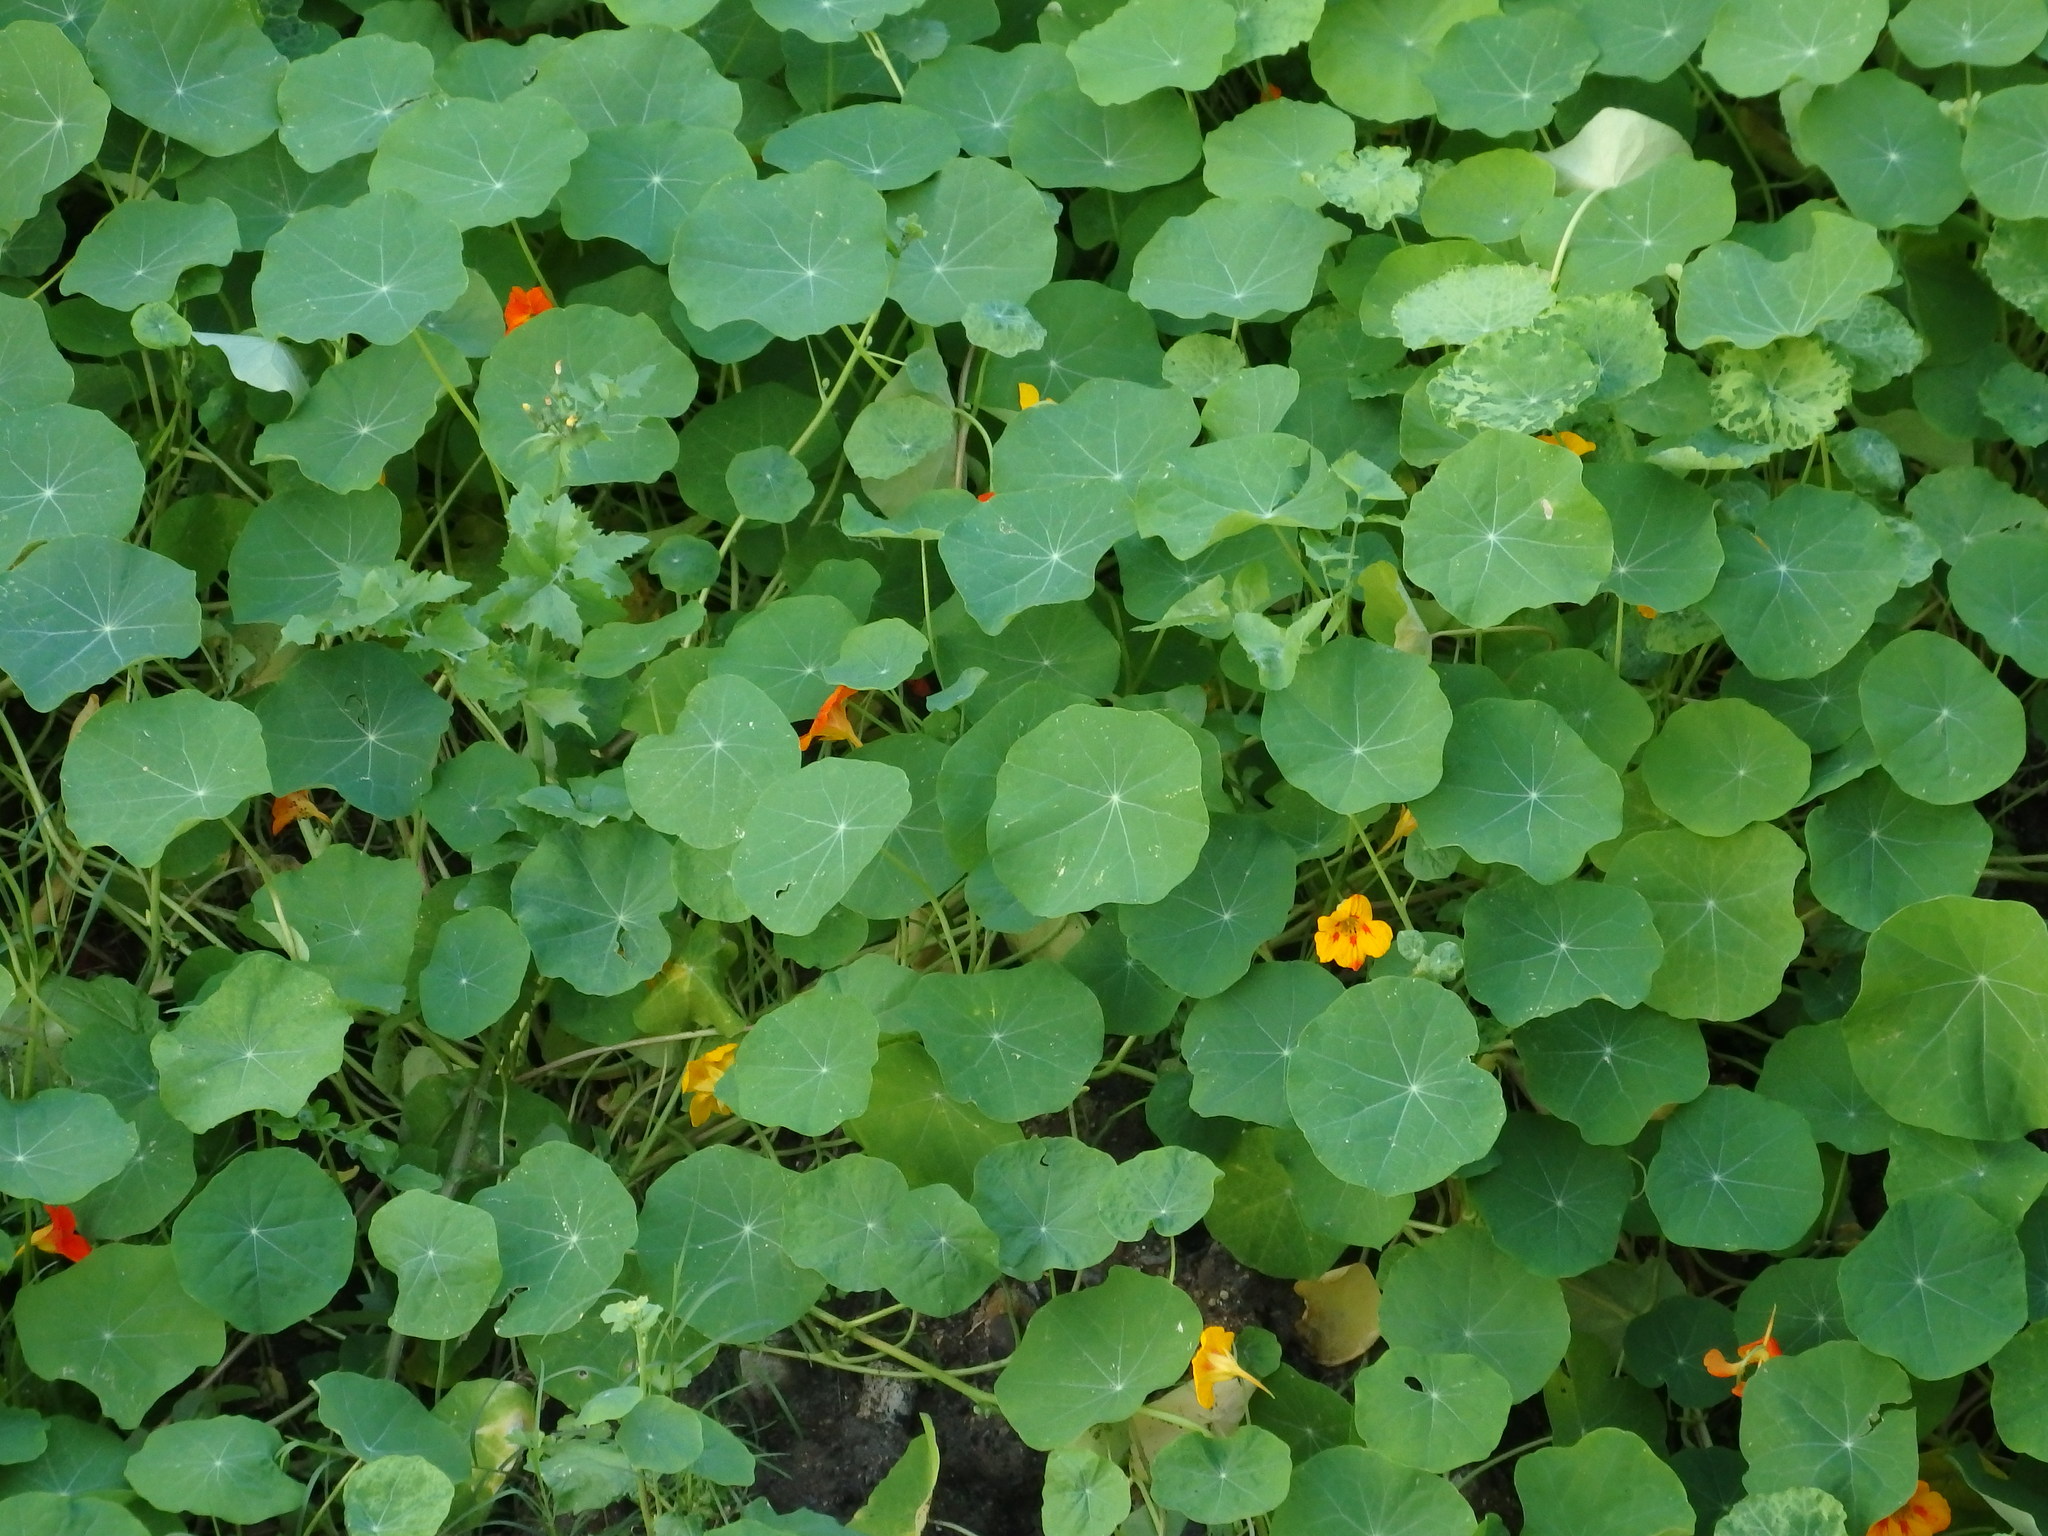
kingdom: Plantae
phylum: Tracheophyta
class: Magnoliopsida
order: Brassicales
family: Tropaeolaceae
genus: Tropaeolum
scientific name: Tropaeolum majus
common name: Nasturtium
